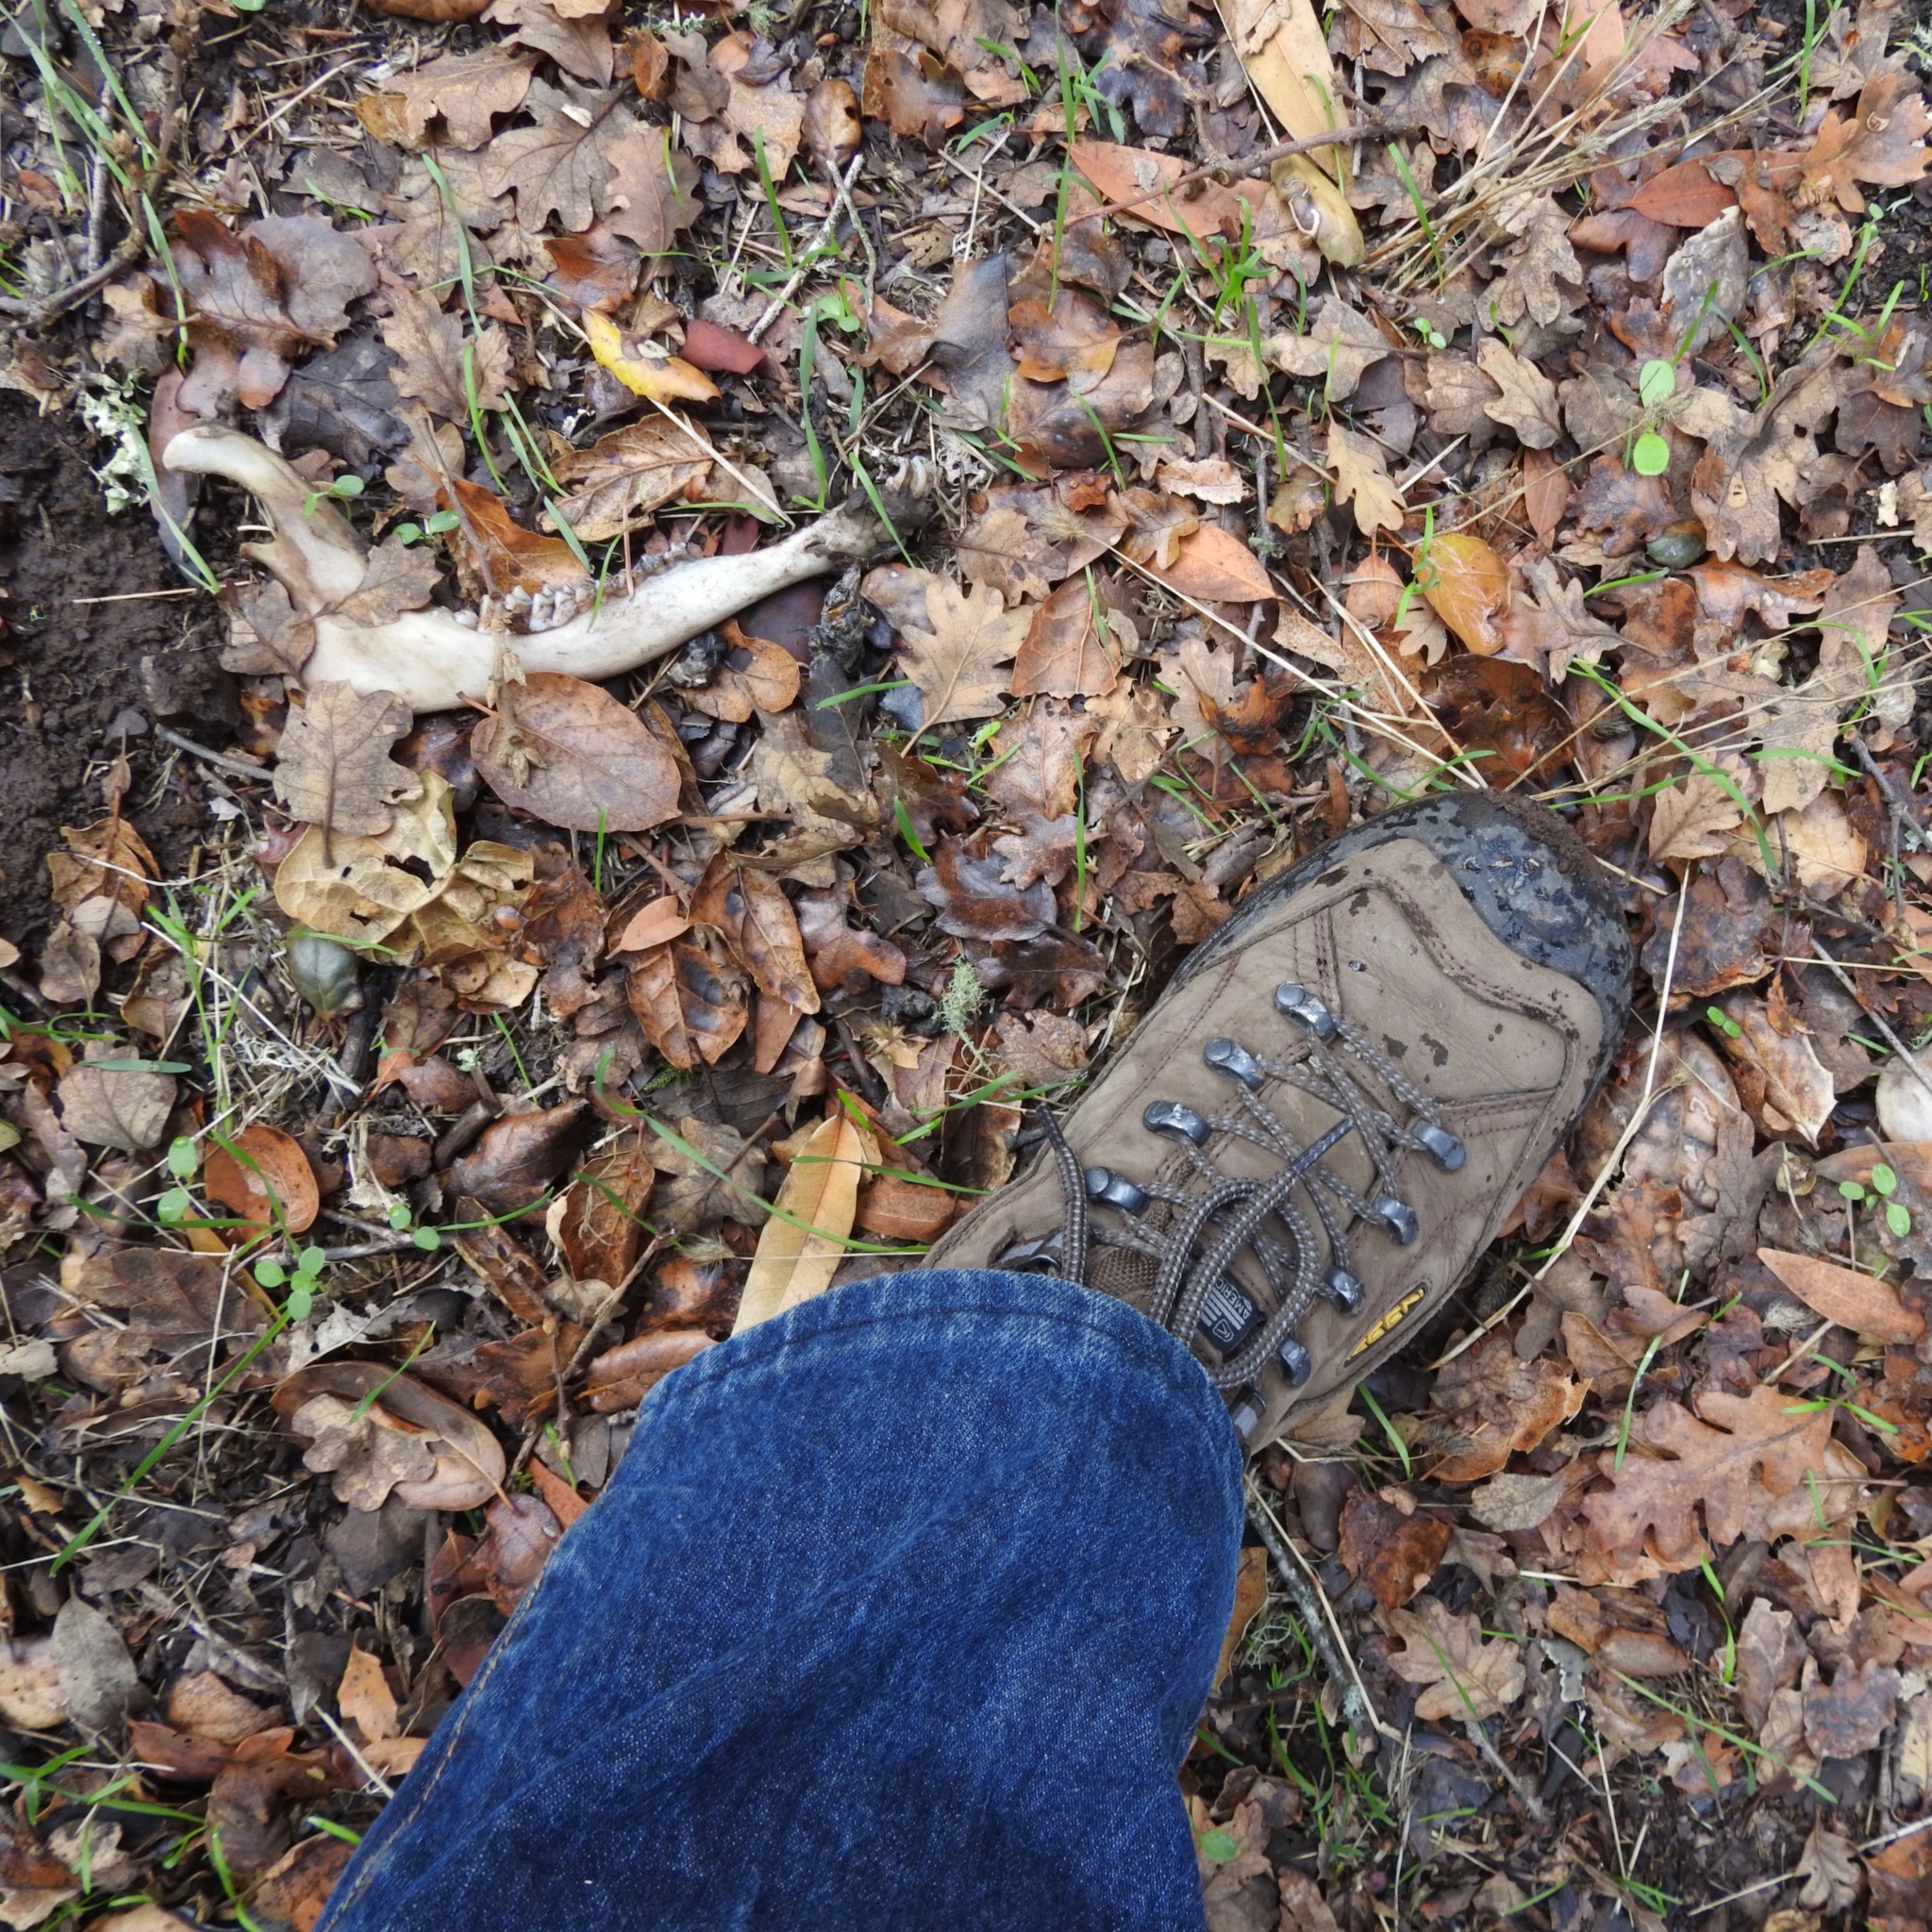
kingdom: Animalia
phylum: Chordata
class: Mammalia
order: Artiodactyla
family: Cervidae
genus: Odocoileus
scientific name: Odocoileus hemionus
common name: Mule deer
